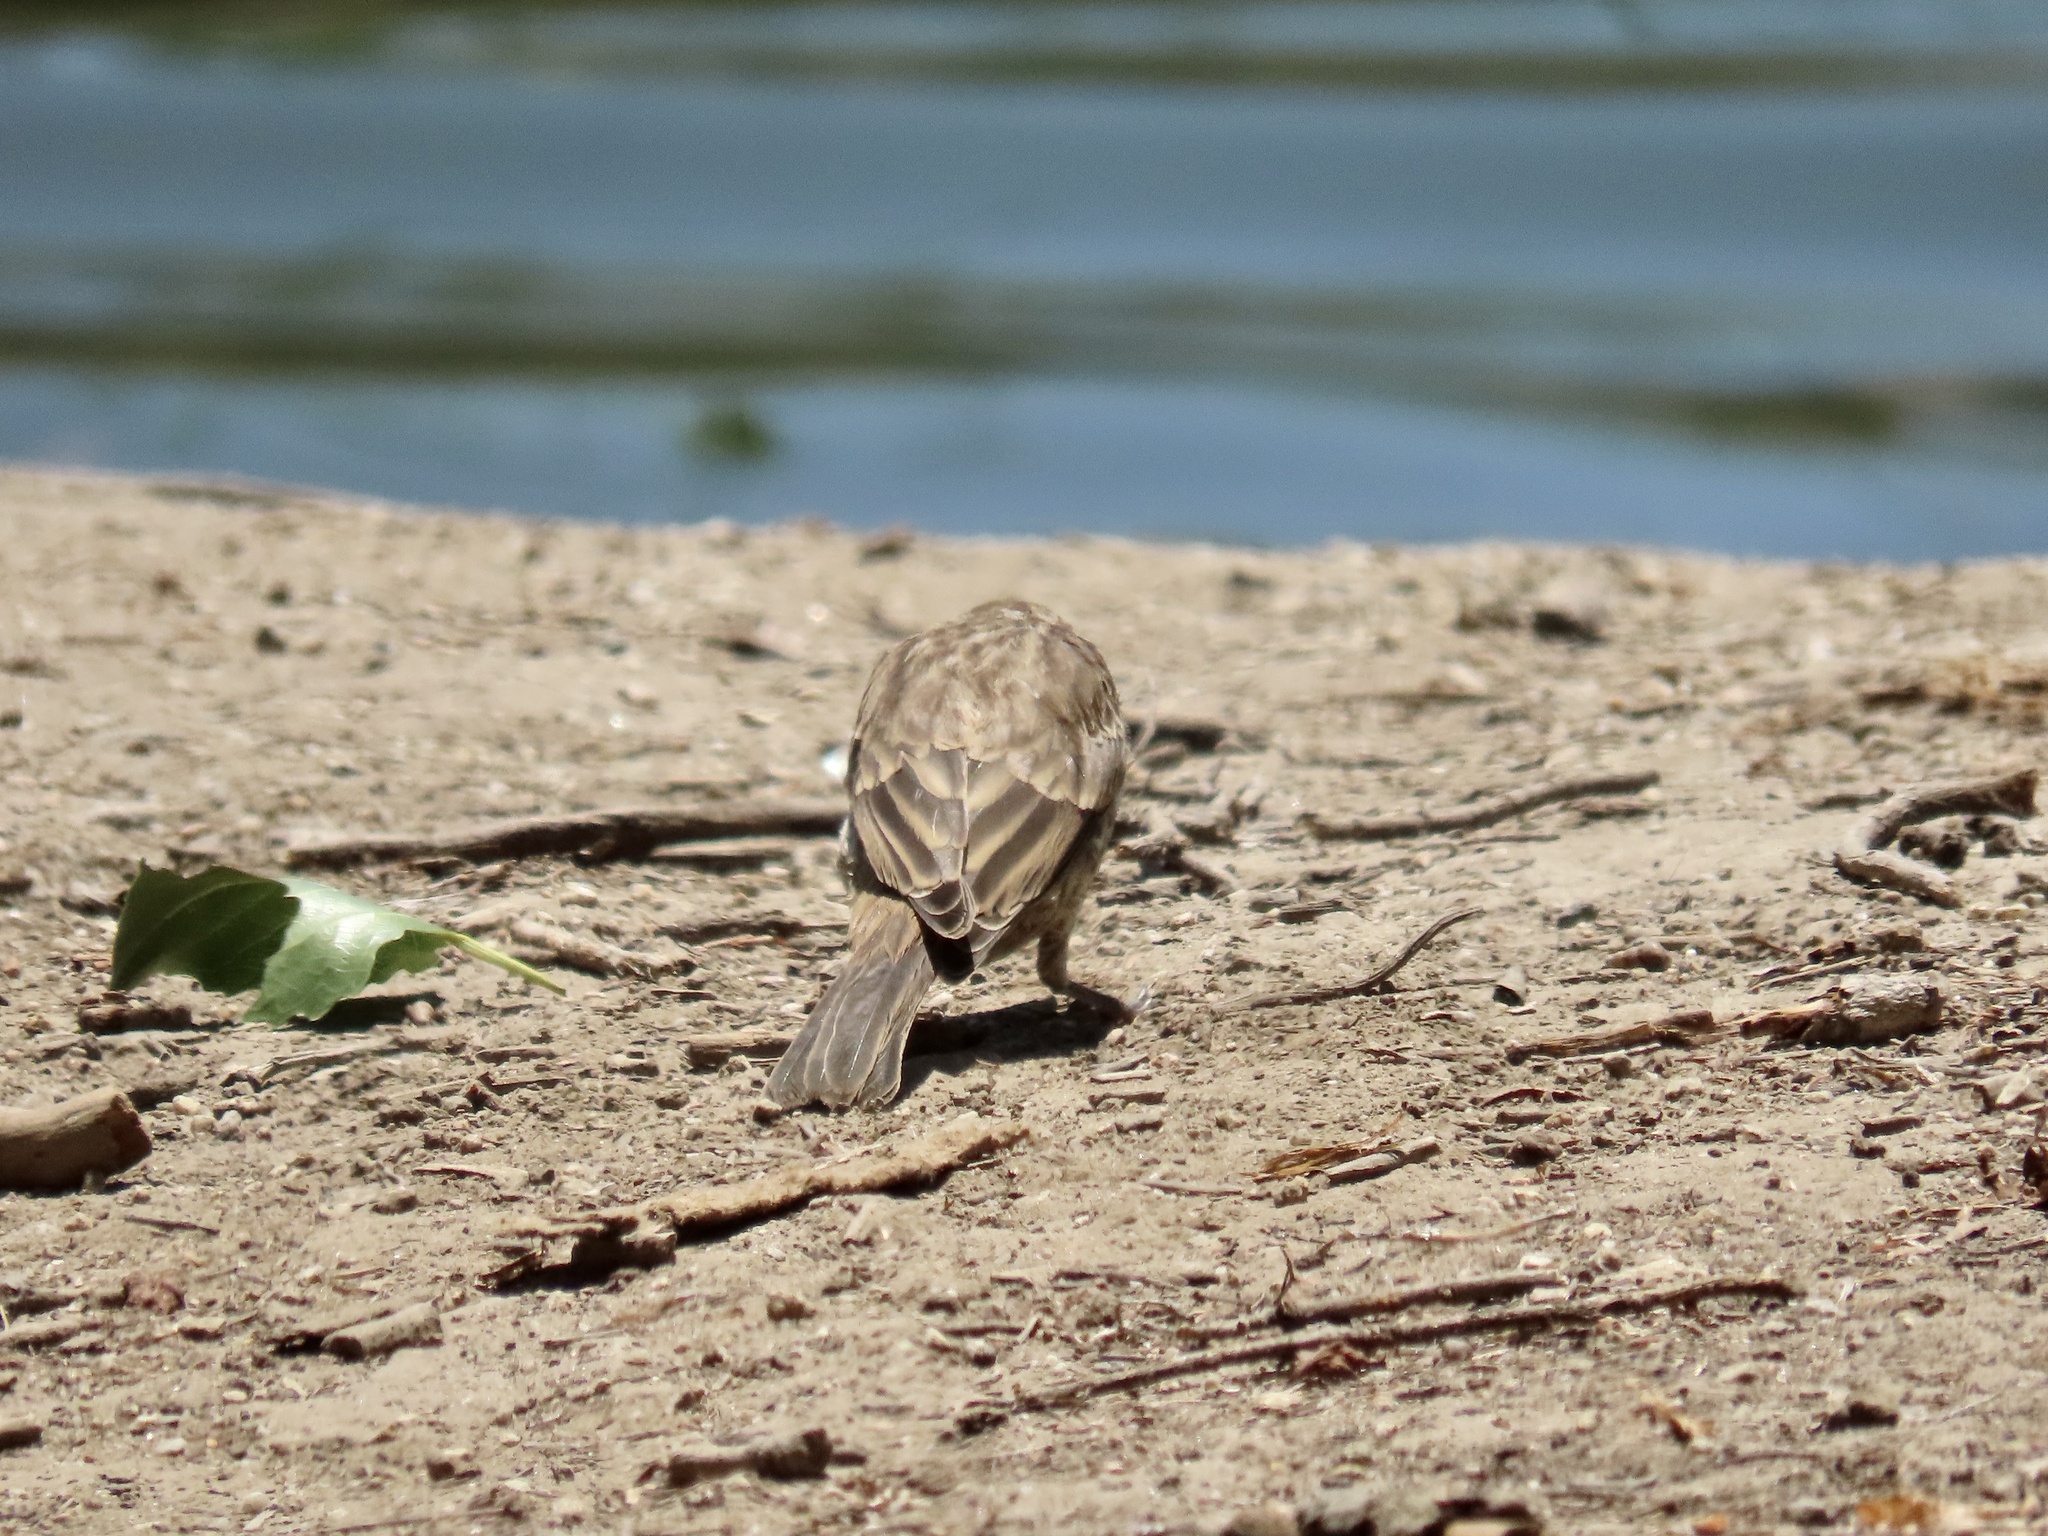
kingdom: Animalia
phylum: Chordata
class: Aves
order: Passeriformes
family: Fringillidae
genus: Haemorhous
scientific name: Haemorhous mexicanus
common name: House finch
